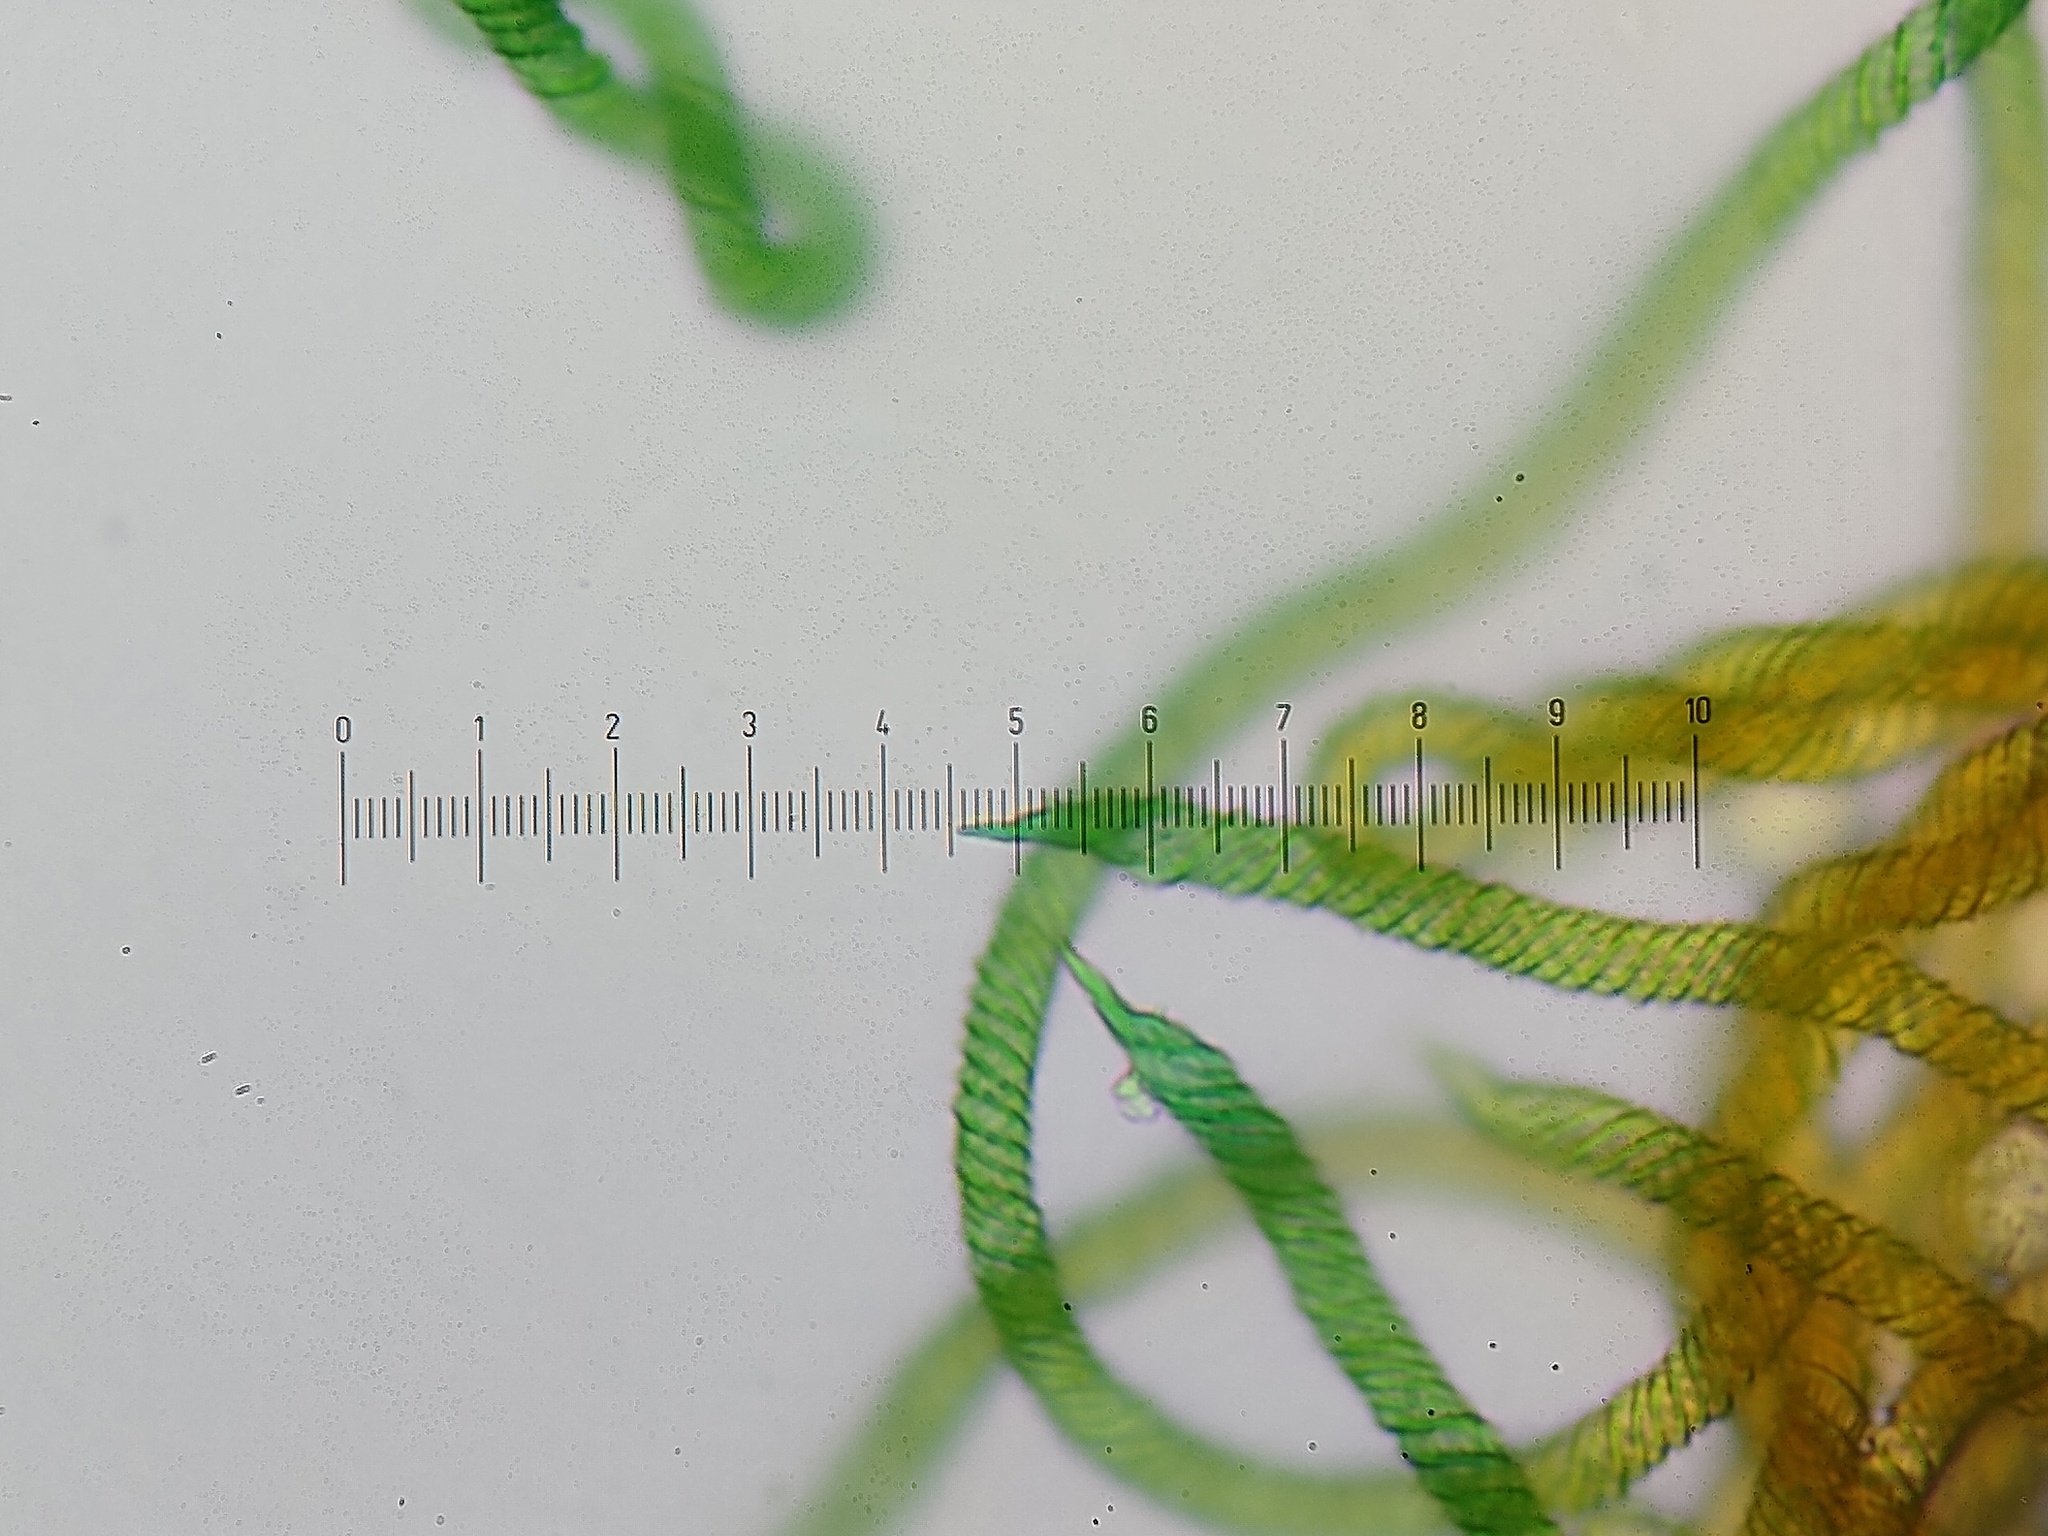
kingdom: Protozoa
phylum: Mycetozoa
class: Myxomycetes
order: Trichiales
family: Trichiaceae
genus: Oligonema
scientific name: Oligonema persimile
